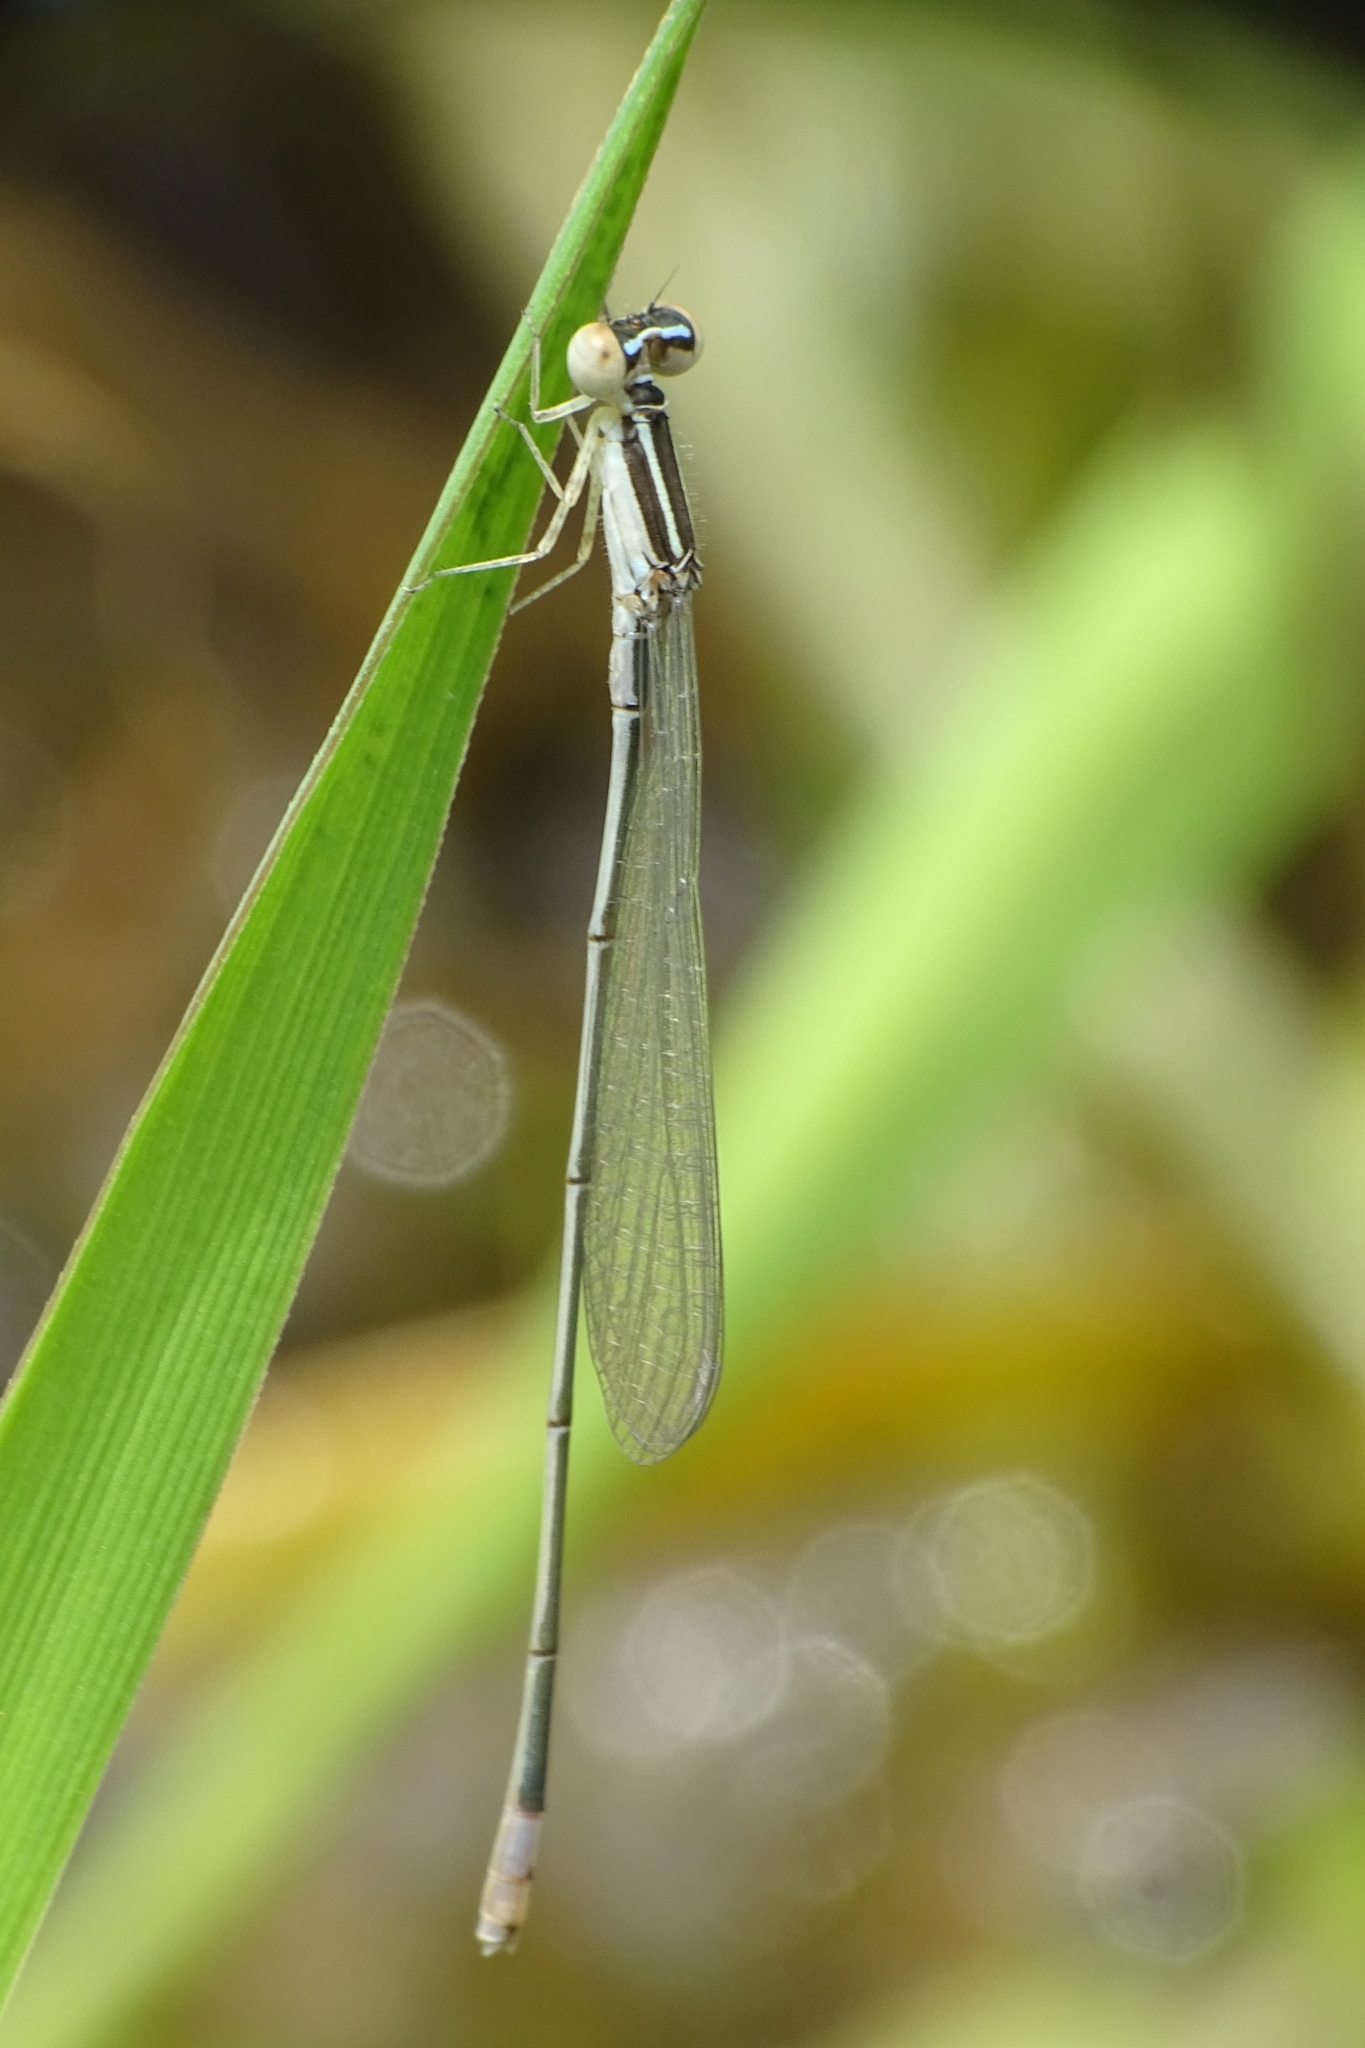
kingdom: Animalia
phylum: Arthropoda
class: Insecta
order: Odonata
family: Coenagrionidae
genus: Aciagrion
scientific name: Aciagrion occidentale
